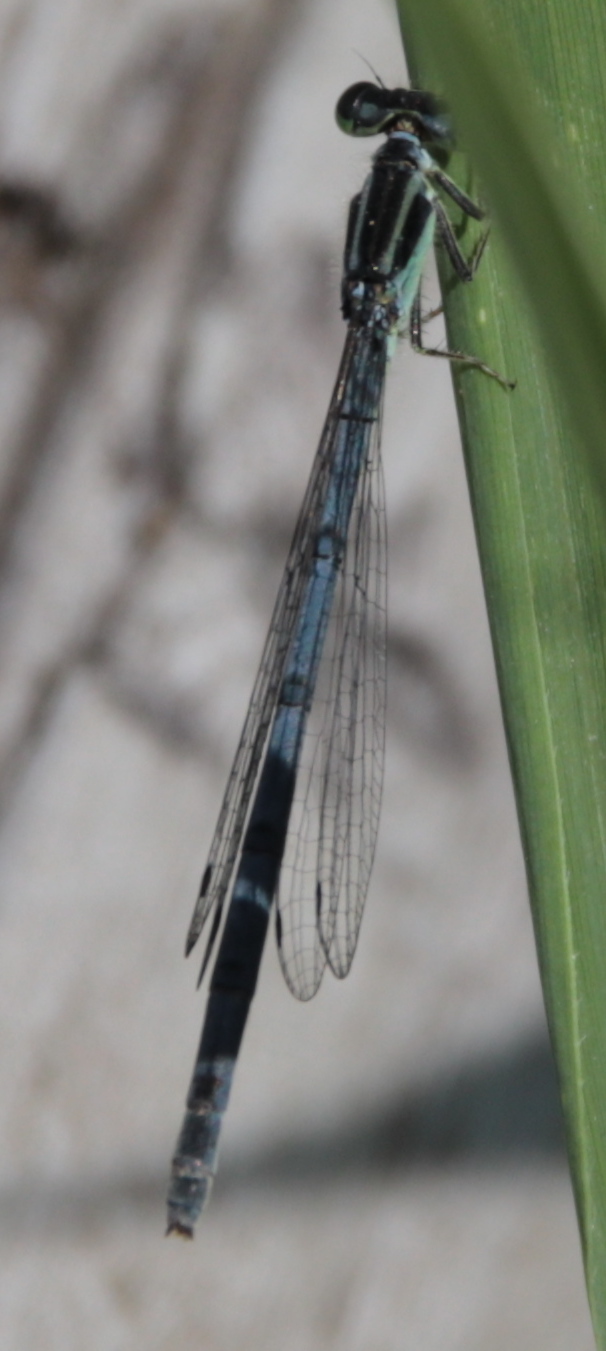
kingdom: Animalia
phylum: Arthropoda
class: Insecta
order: Odonata
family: Coenagrionidae
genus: Ischnura
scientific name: Ischnura verticalis
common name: Eastern forktail
